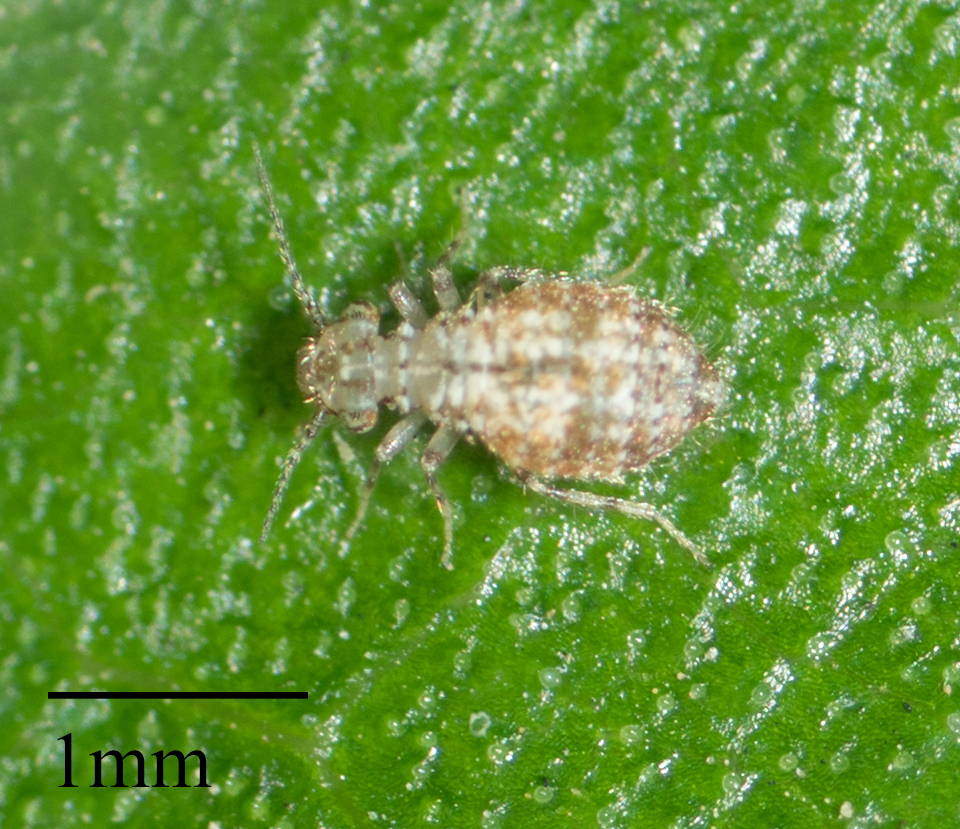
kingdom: Animalia
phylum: Arthropoda
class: Insecta
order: Psocodea
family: Trogiidae
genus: Cerobasis
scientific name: Cerobasis guestfalica
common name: Book lice
